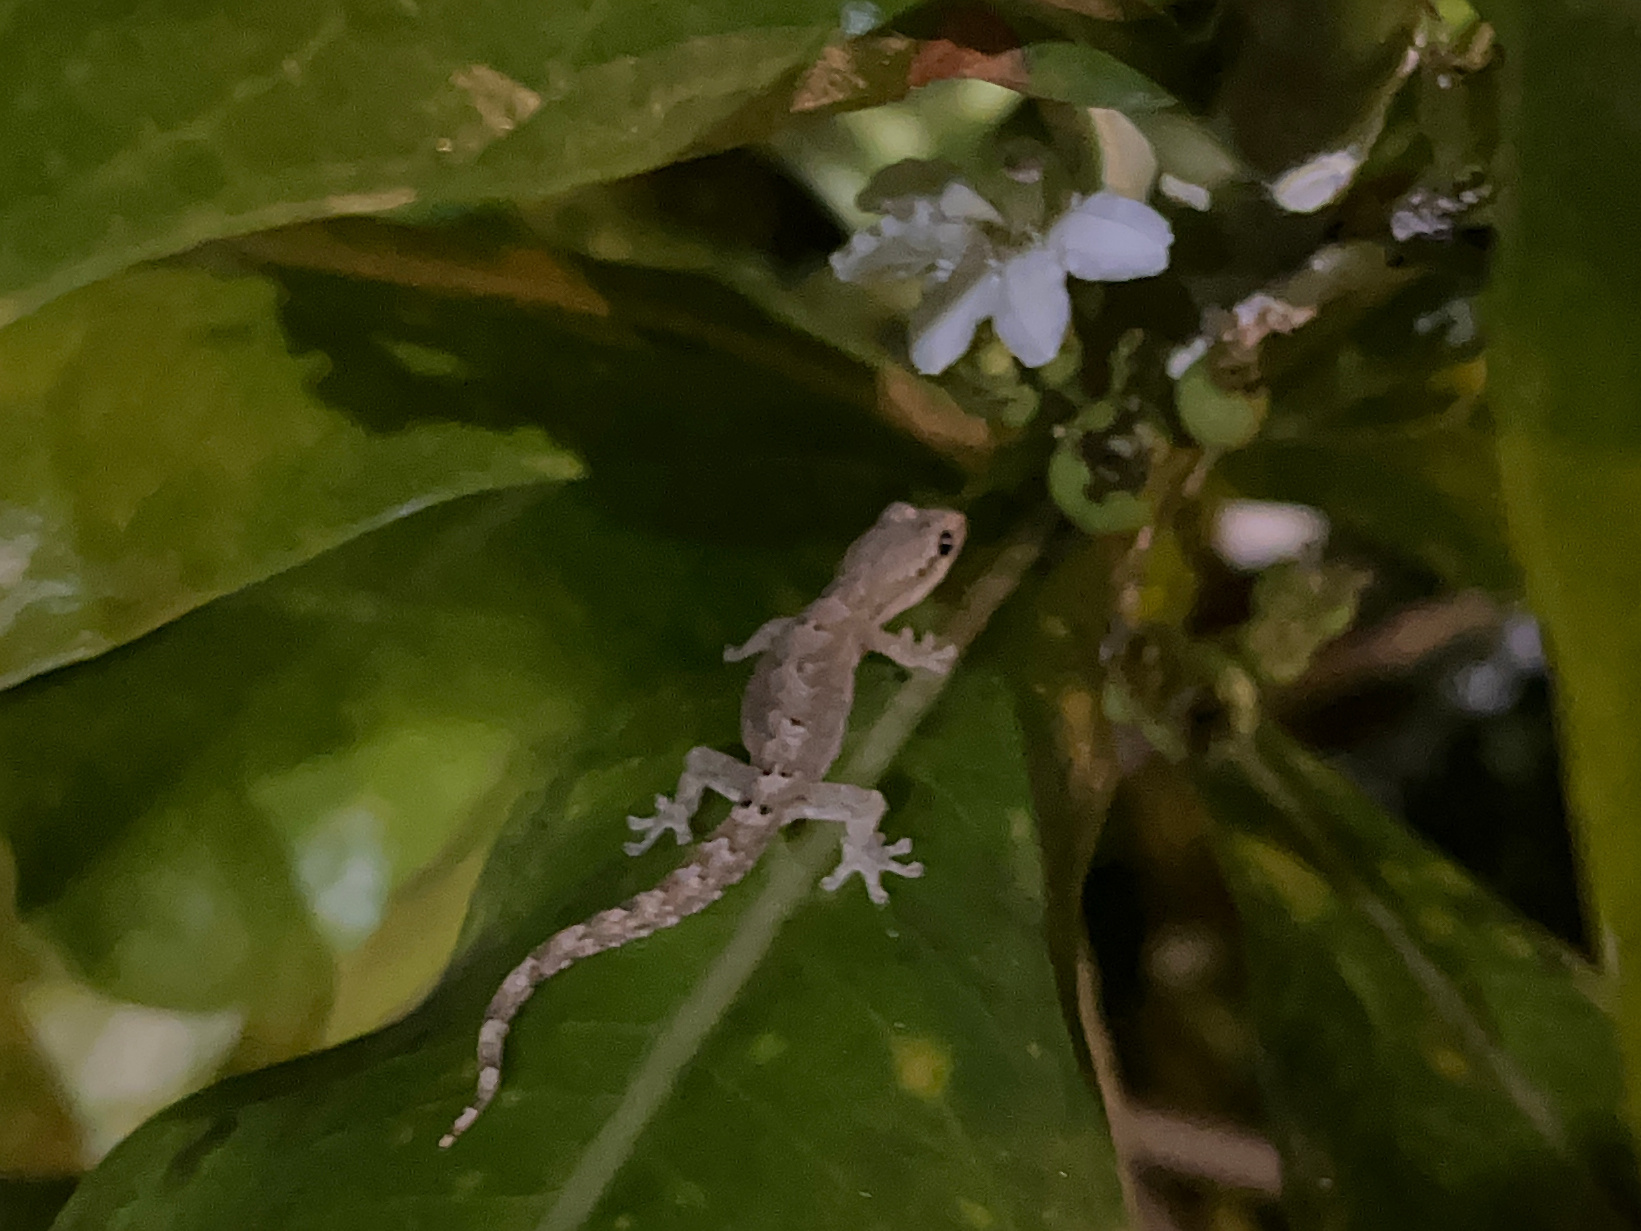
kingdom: Animalia
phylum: Chordata
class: Squamata
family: Gekkonidae
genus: Lepidodactylus
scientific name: Lepidodactylus lugubris
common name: Mourning gecko
